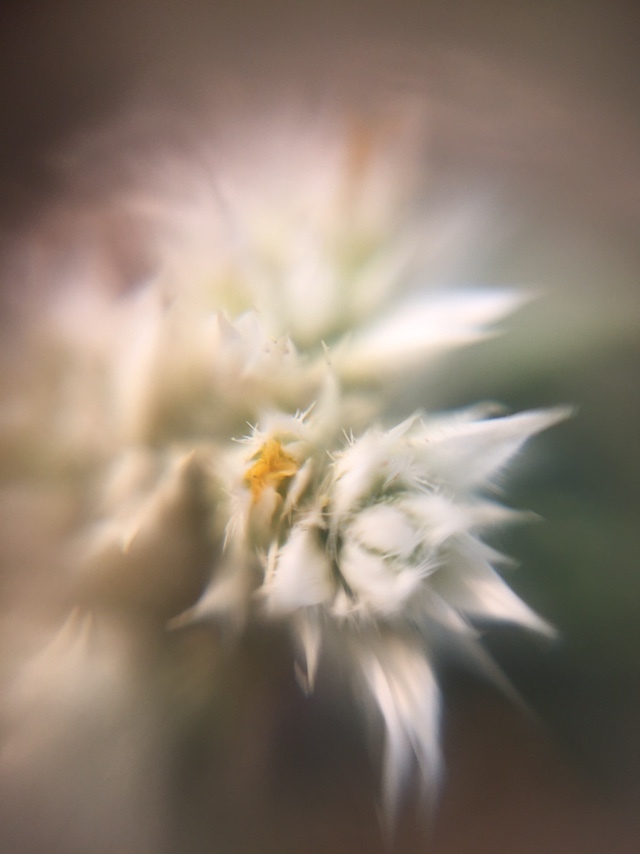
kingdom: Plantae
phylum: Tracheophyta
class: Magnoliopsida
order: Caryophyllales
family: Amaranthaceae
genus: Alternanthera
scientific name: Alternanthera ficoidea
